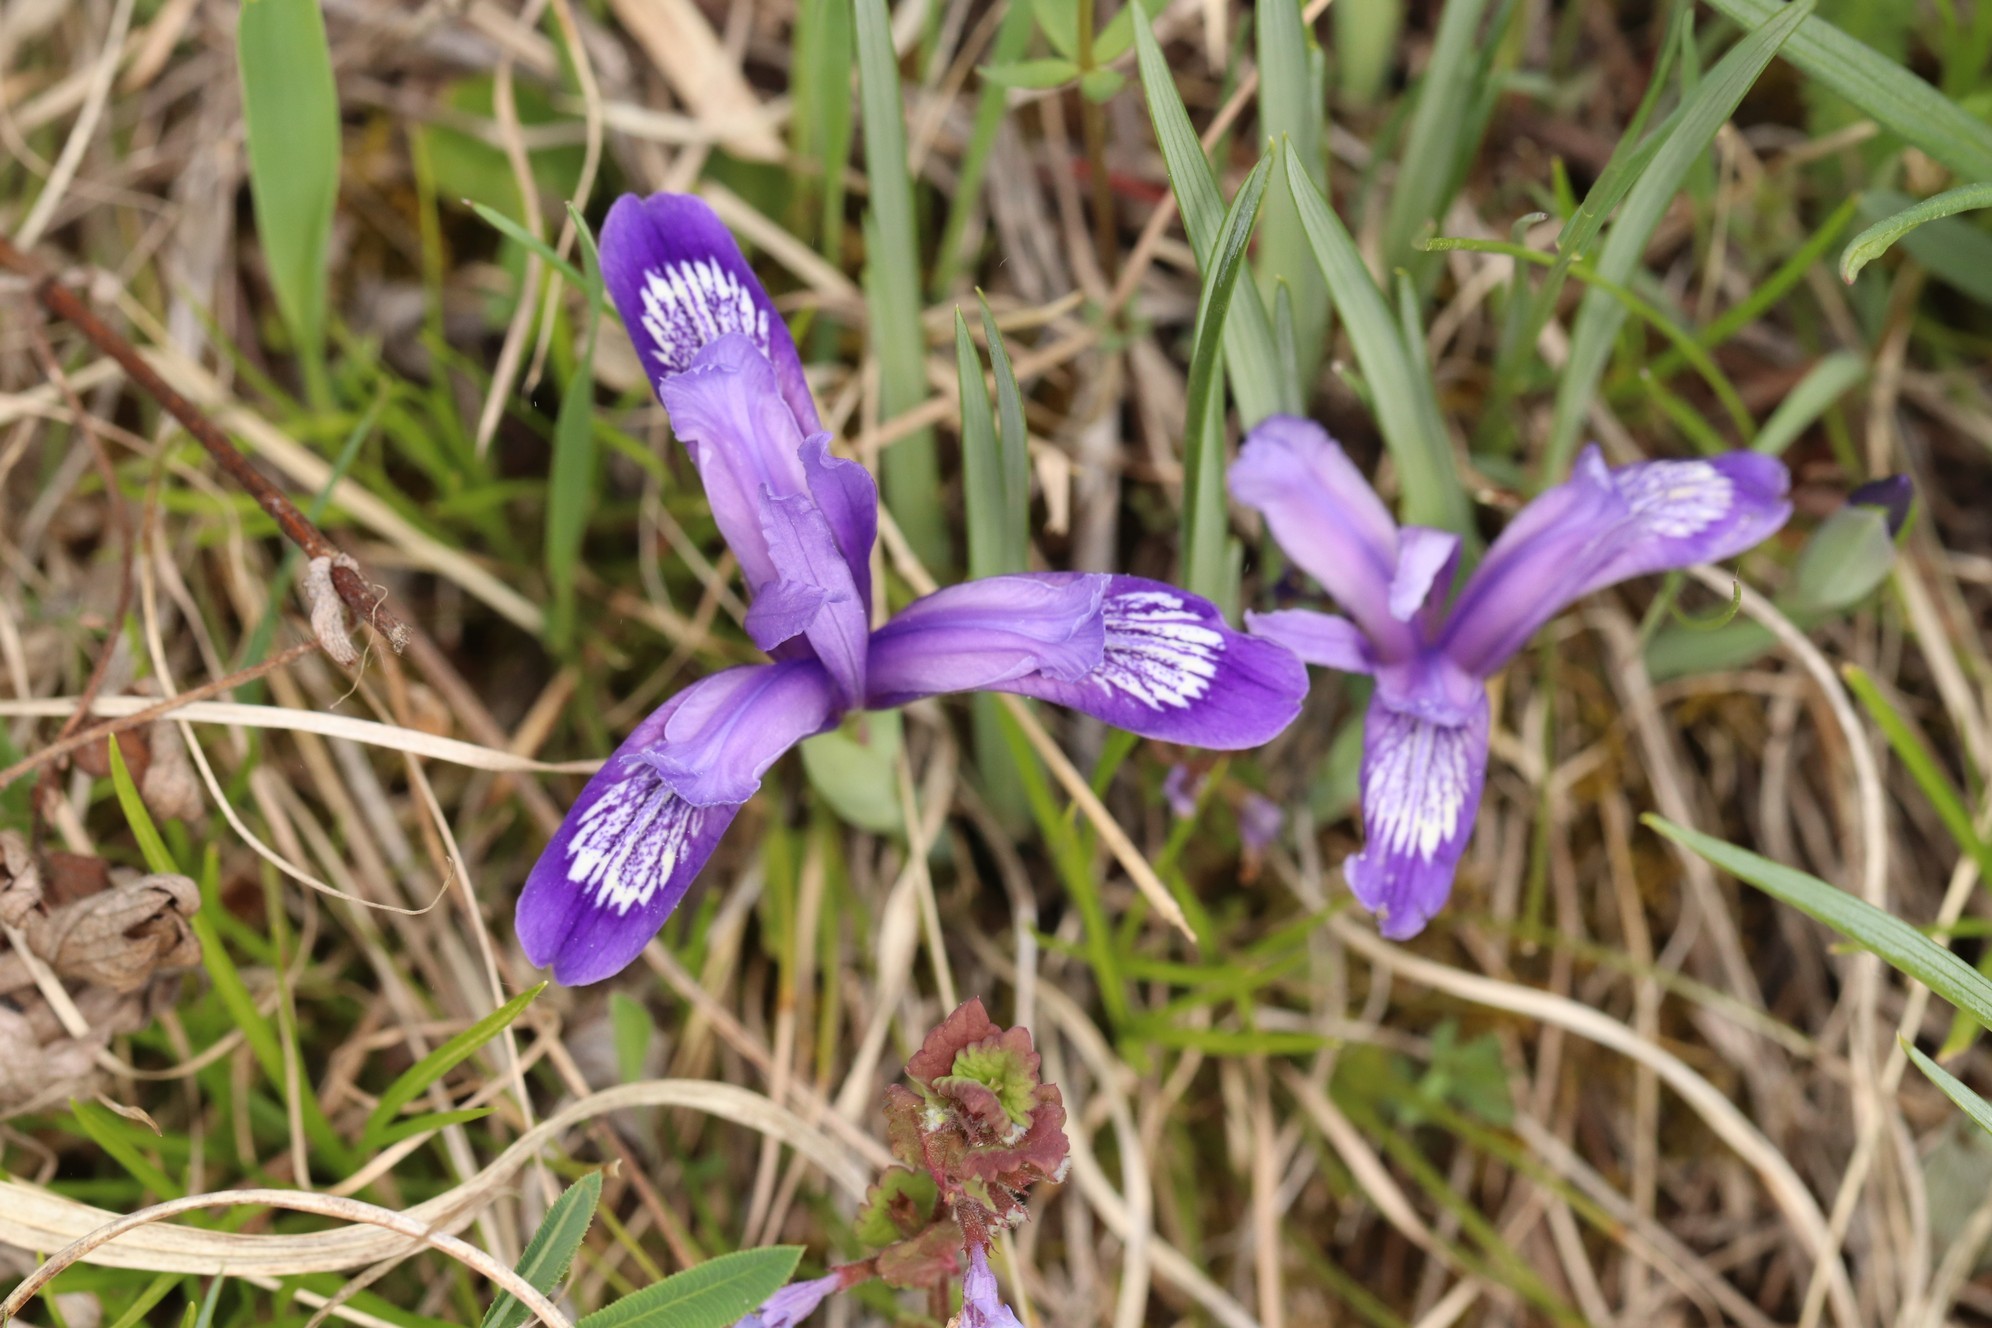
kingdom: Plantae
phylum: Tracheophyta
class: Liliopsida
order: Asparagales
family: Iridaceae
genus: Iris
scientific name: Iris ruthenica
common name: Purple-bract iris
